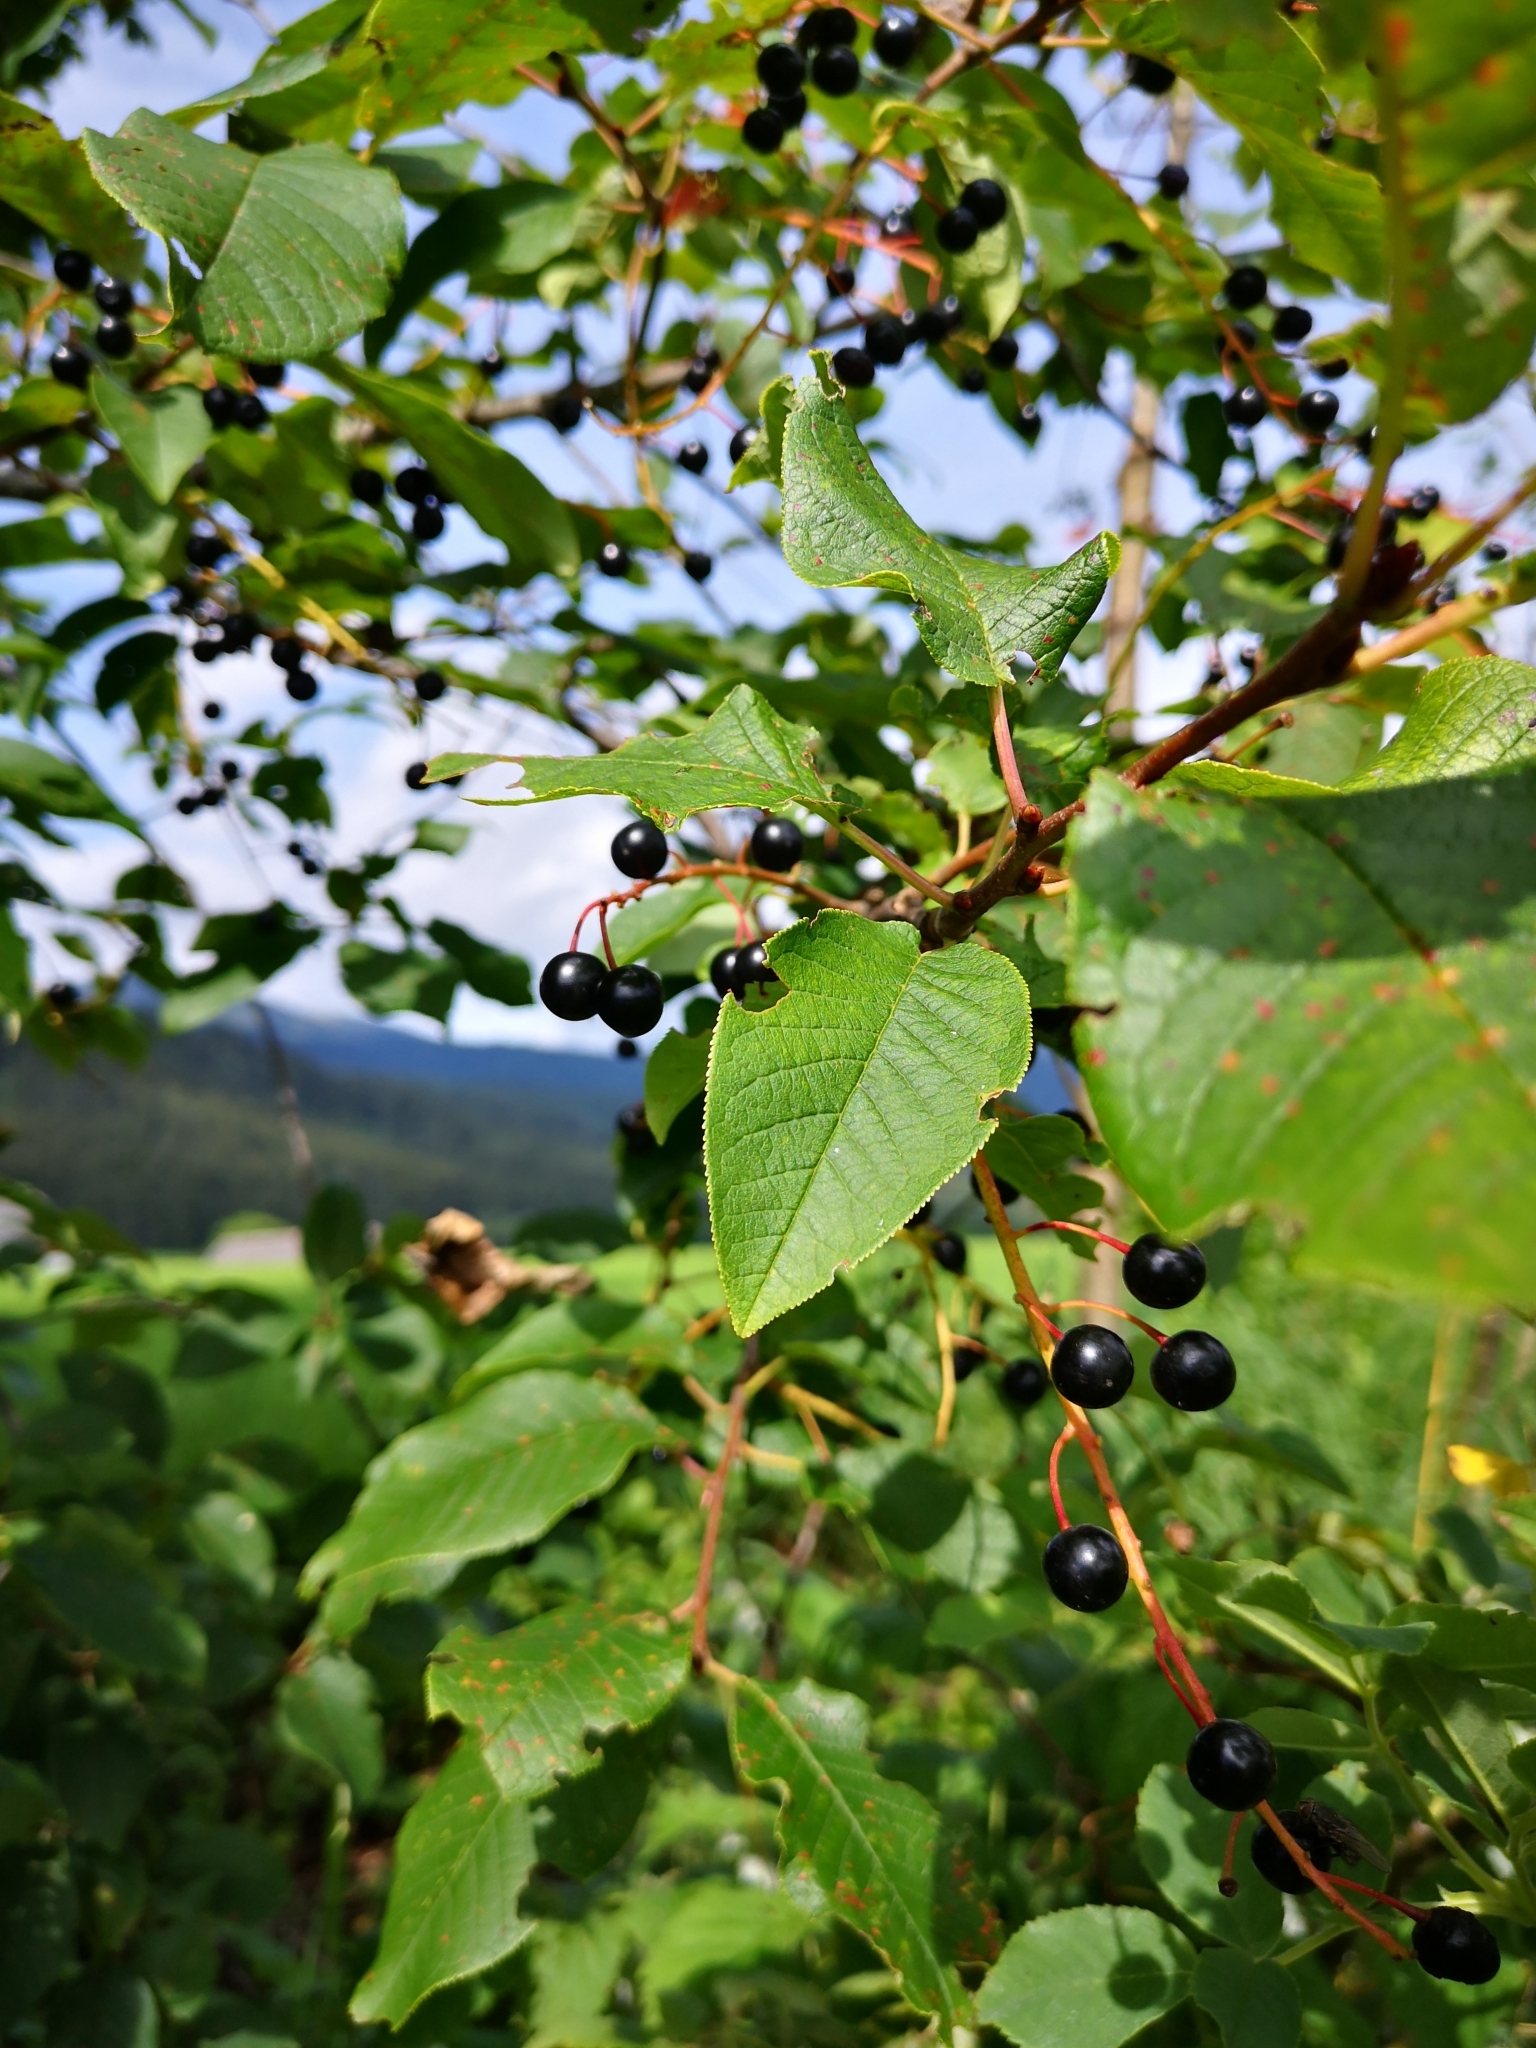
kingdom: Plantae
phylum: Tracheophyta
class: Magnoliopsida
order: Rosales
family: Rosaceae
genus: Prunus
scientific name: Prunus padus
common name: Bird cherry
